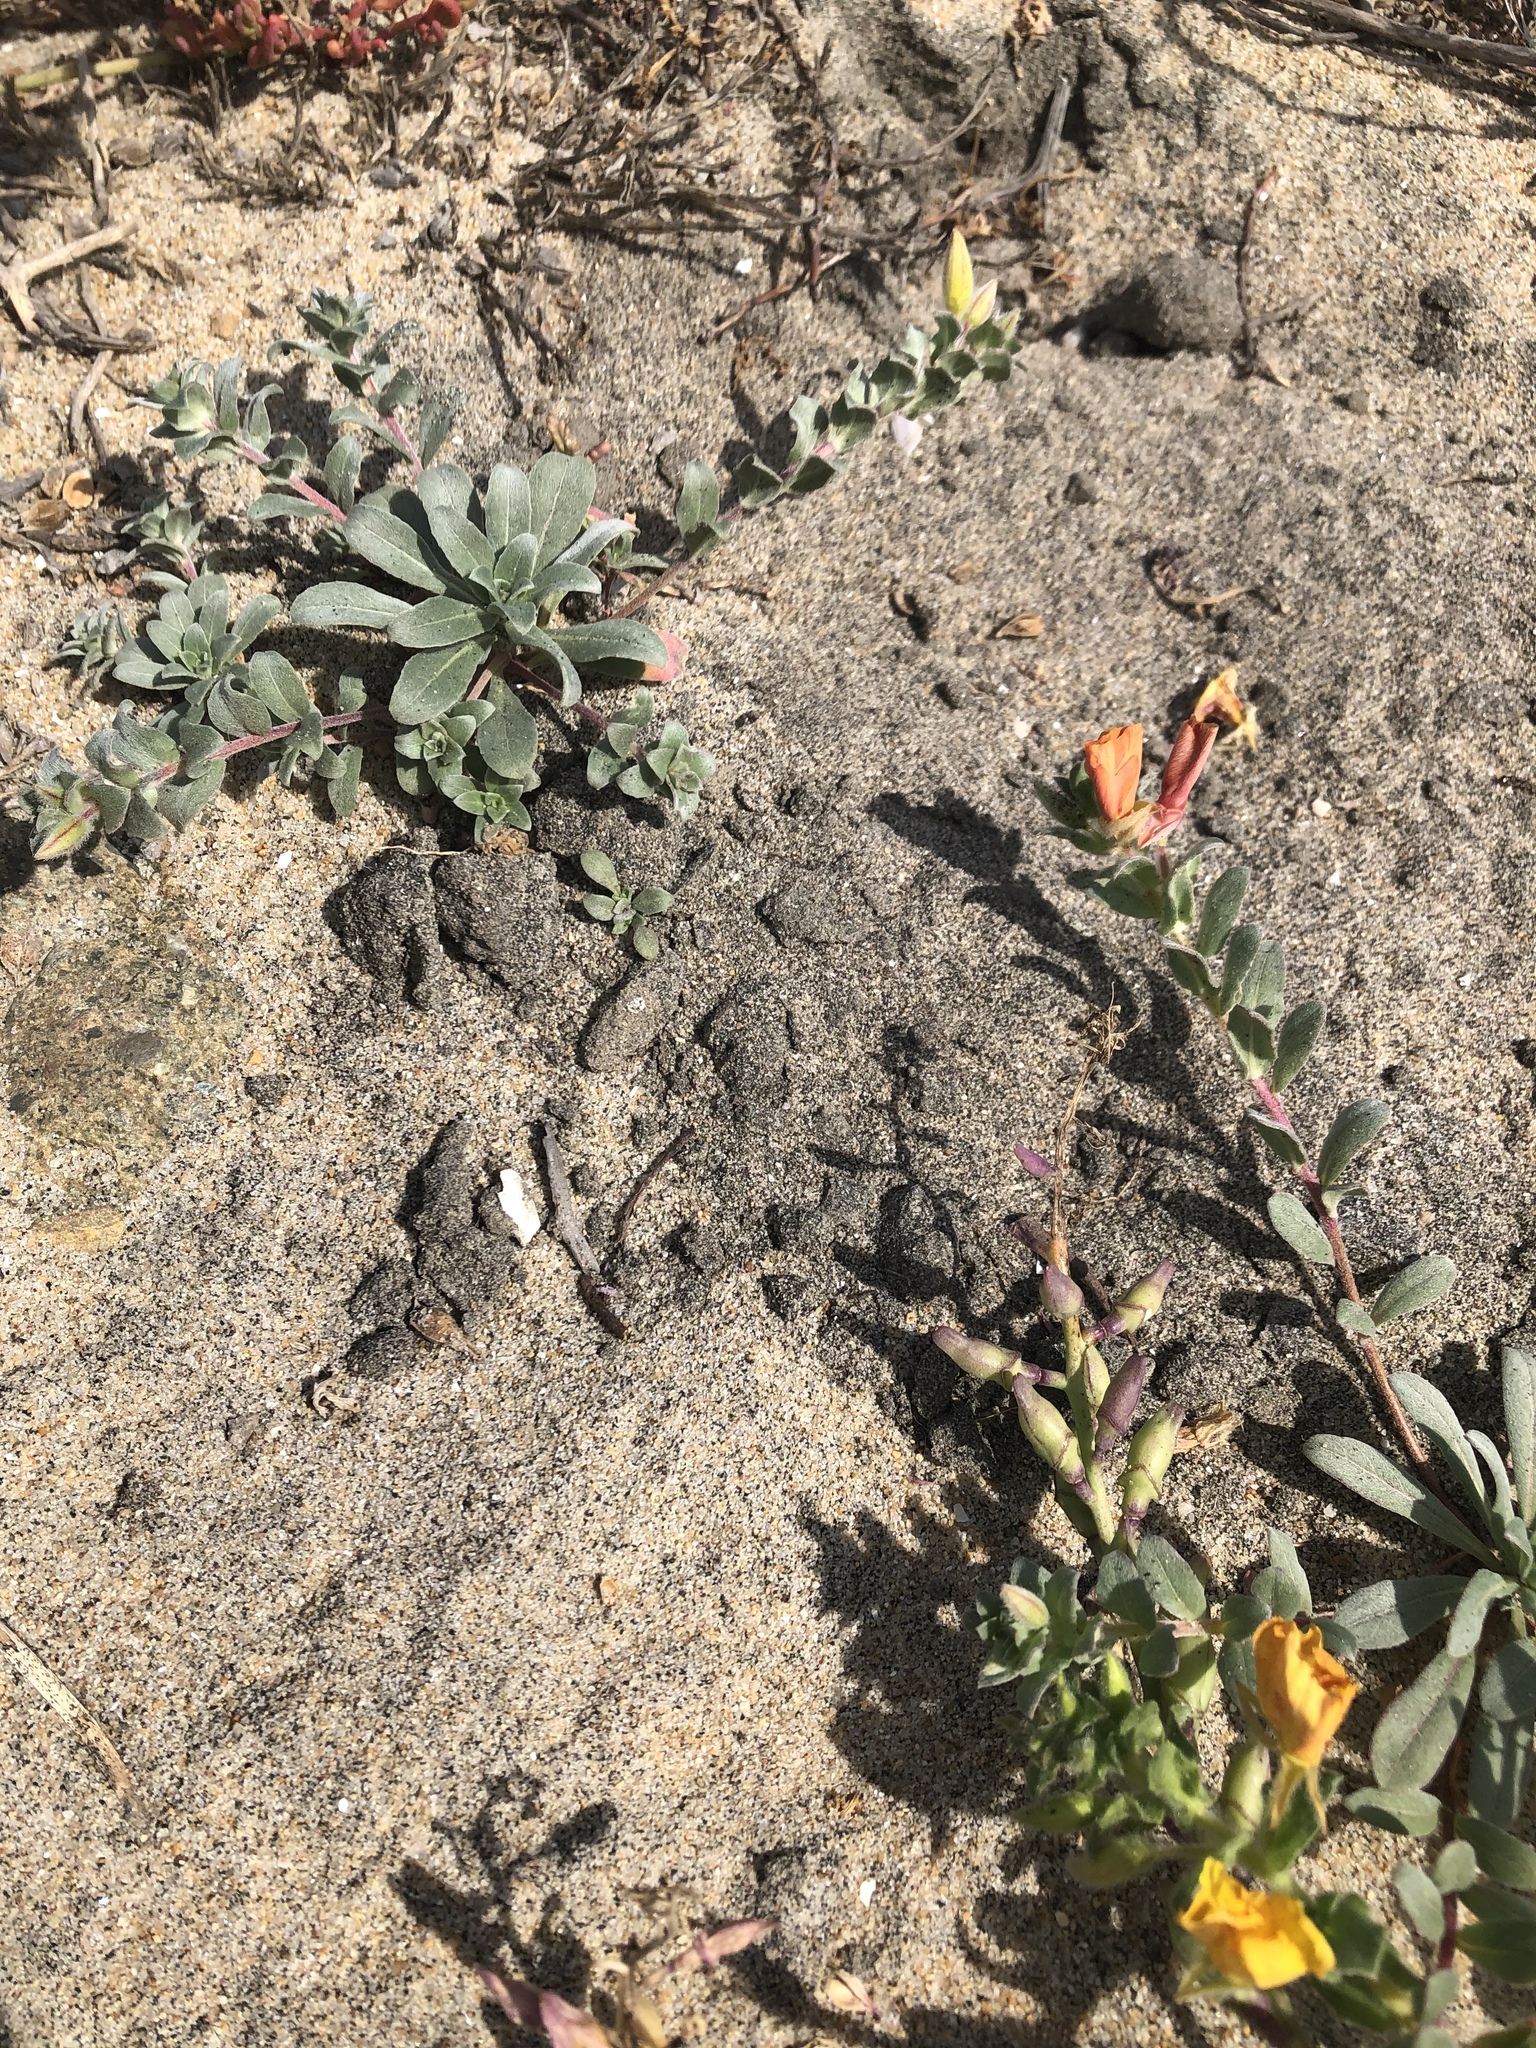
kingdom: Plantae
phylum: Tracheophyta
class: Magnoliopsida
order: Myrtales
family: Onagraceae
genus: Camissoniopsis
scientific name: Camissoniopsis cheiranthifolia
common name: Beach suncup
